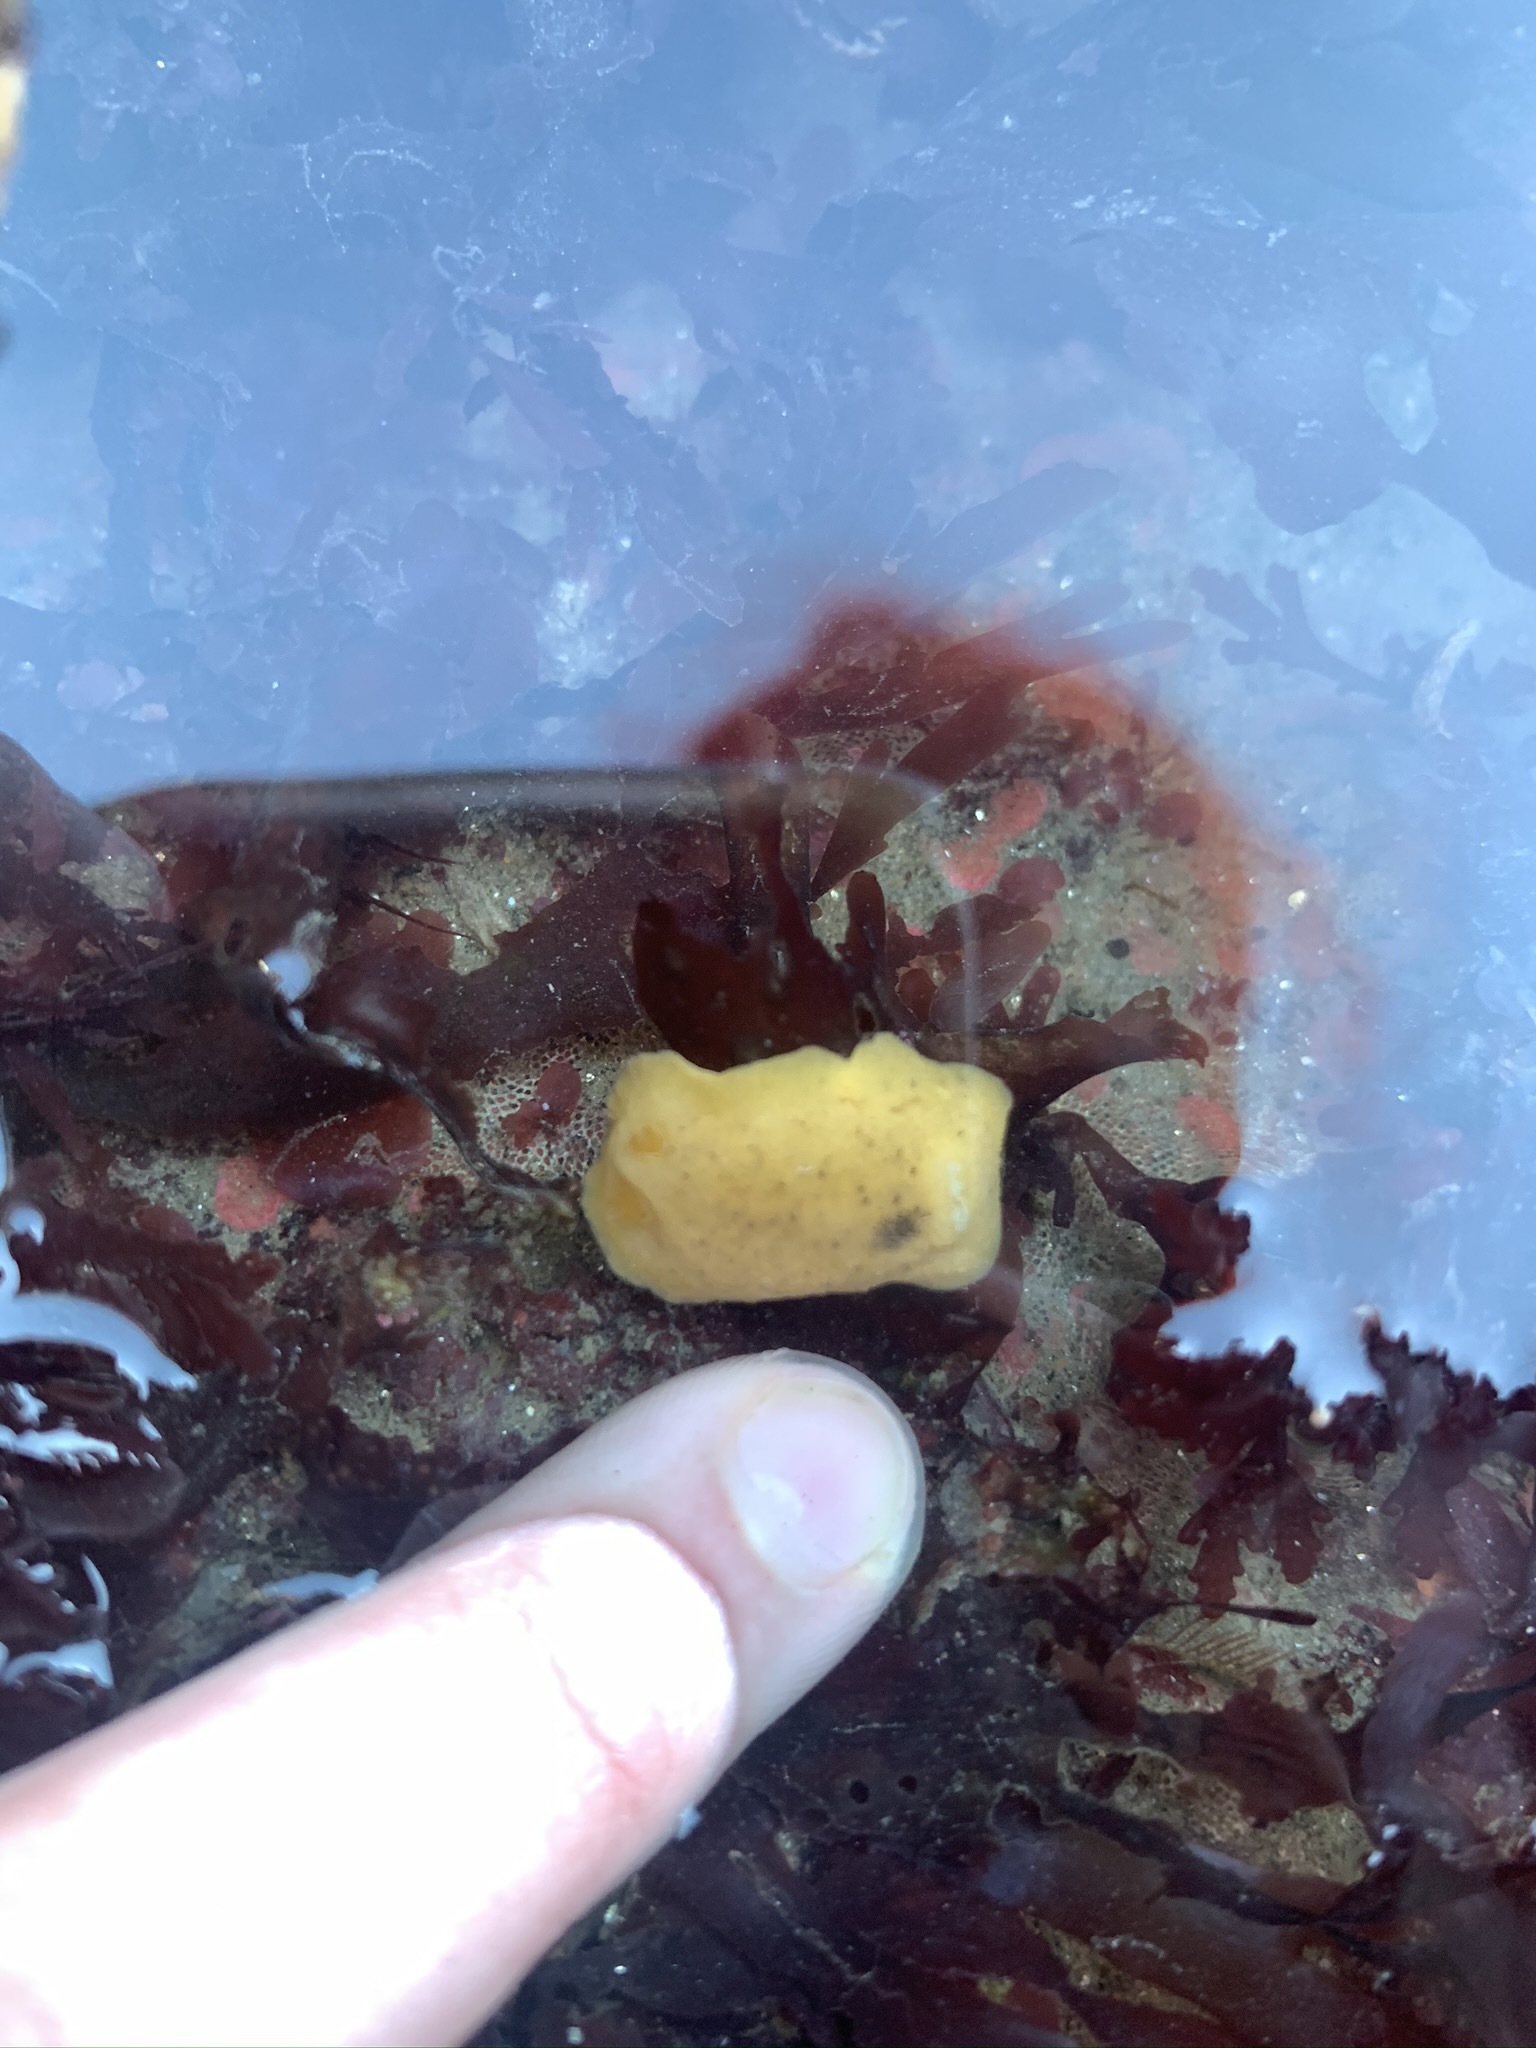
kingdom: Animalia
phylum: Mollusca
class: Gastropoda
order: Nudibranchia
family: Discodorididae
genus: Geitodoris
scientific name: Geitodoris heathi
